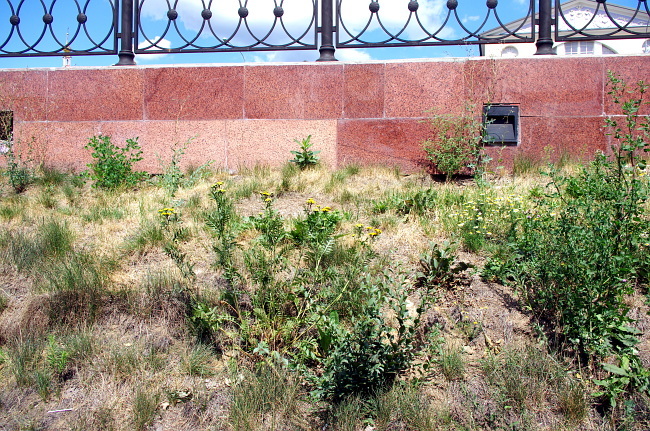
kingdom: Plantae
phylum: Tracheophyta
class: Magnoliopsida
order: Asterales
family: Asteraceae
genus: Tanacetum
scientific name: Tanacetum vulgare
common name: Common tansy
